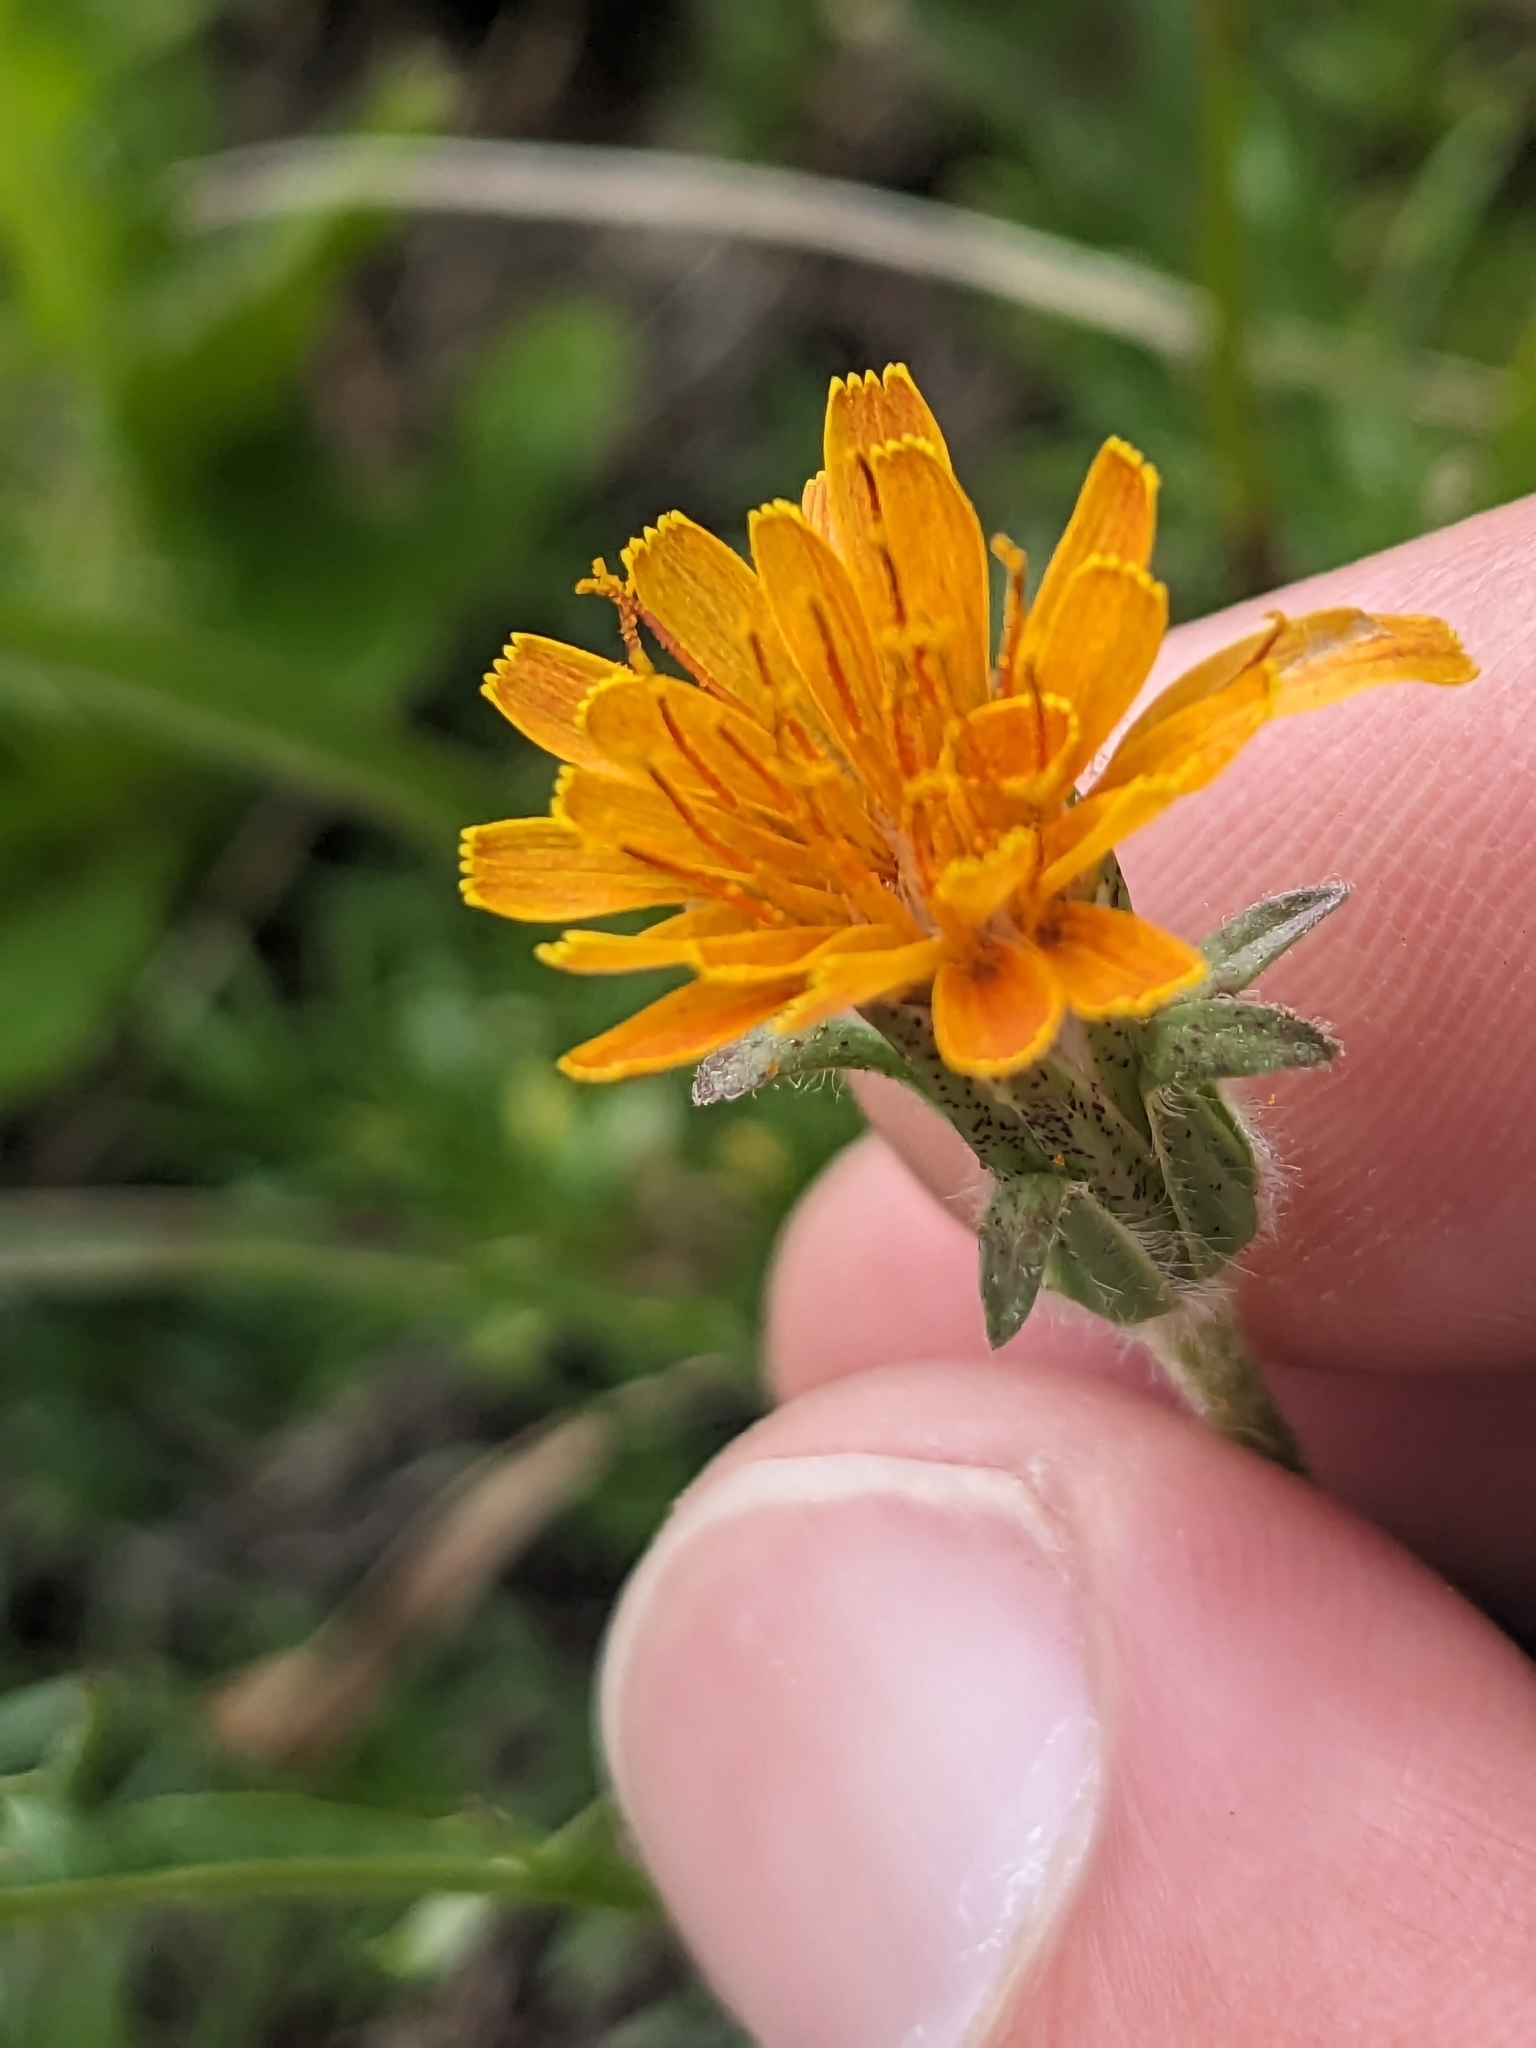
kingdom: Plantae
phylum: Tracheophyta
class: Magnoliopsida
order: Asterales
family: Asteraceae
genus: Agoseris
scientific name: Agoseris aurantiaca
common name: Mountain agoseris
